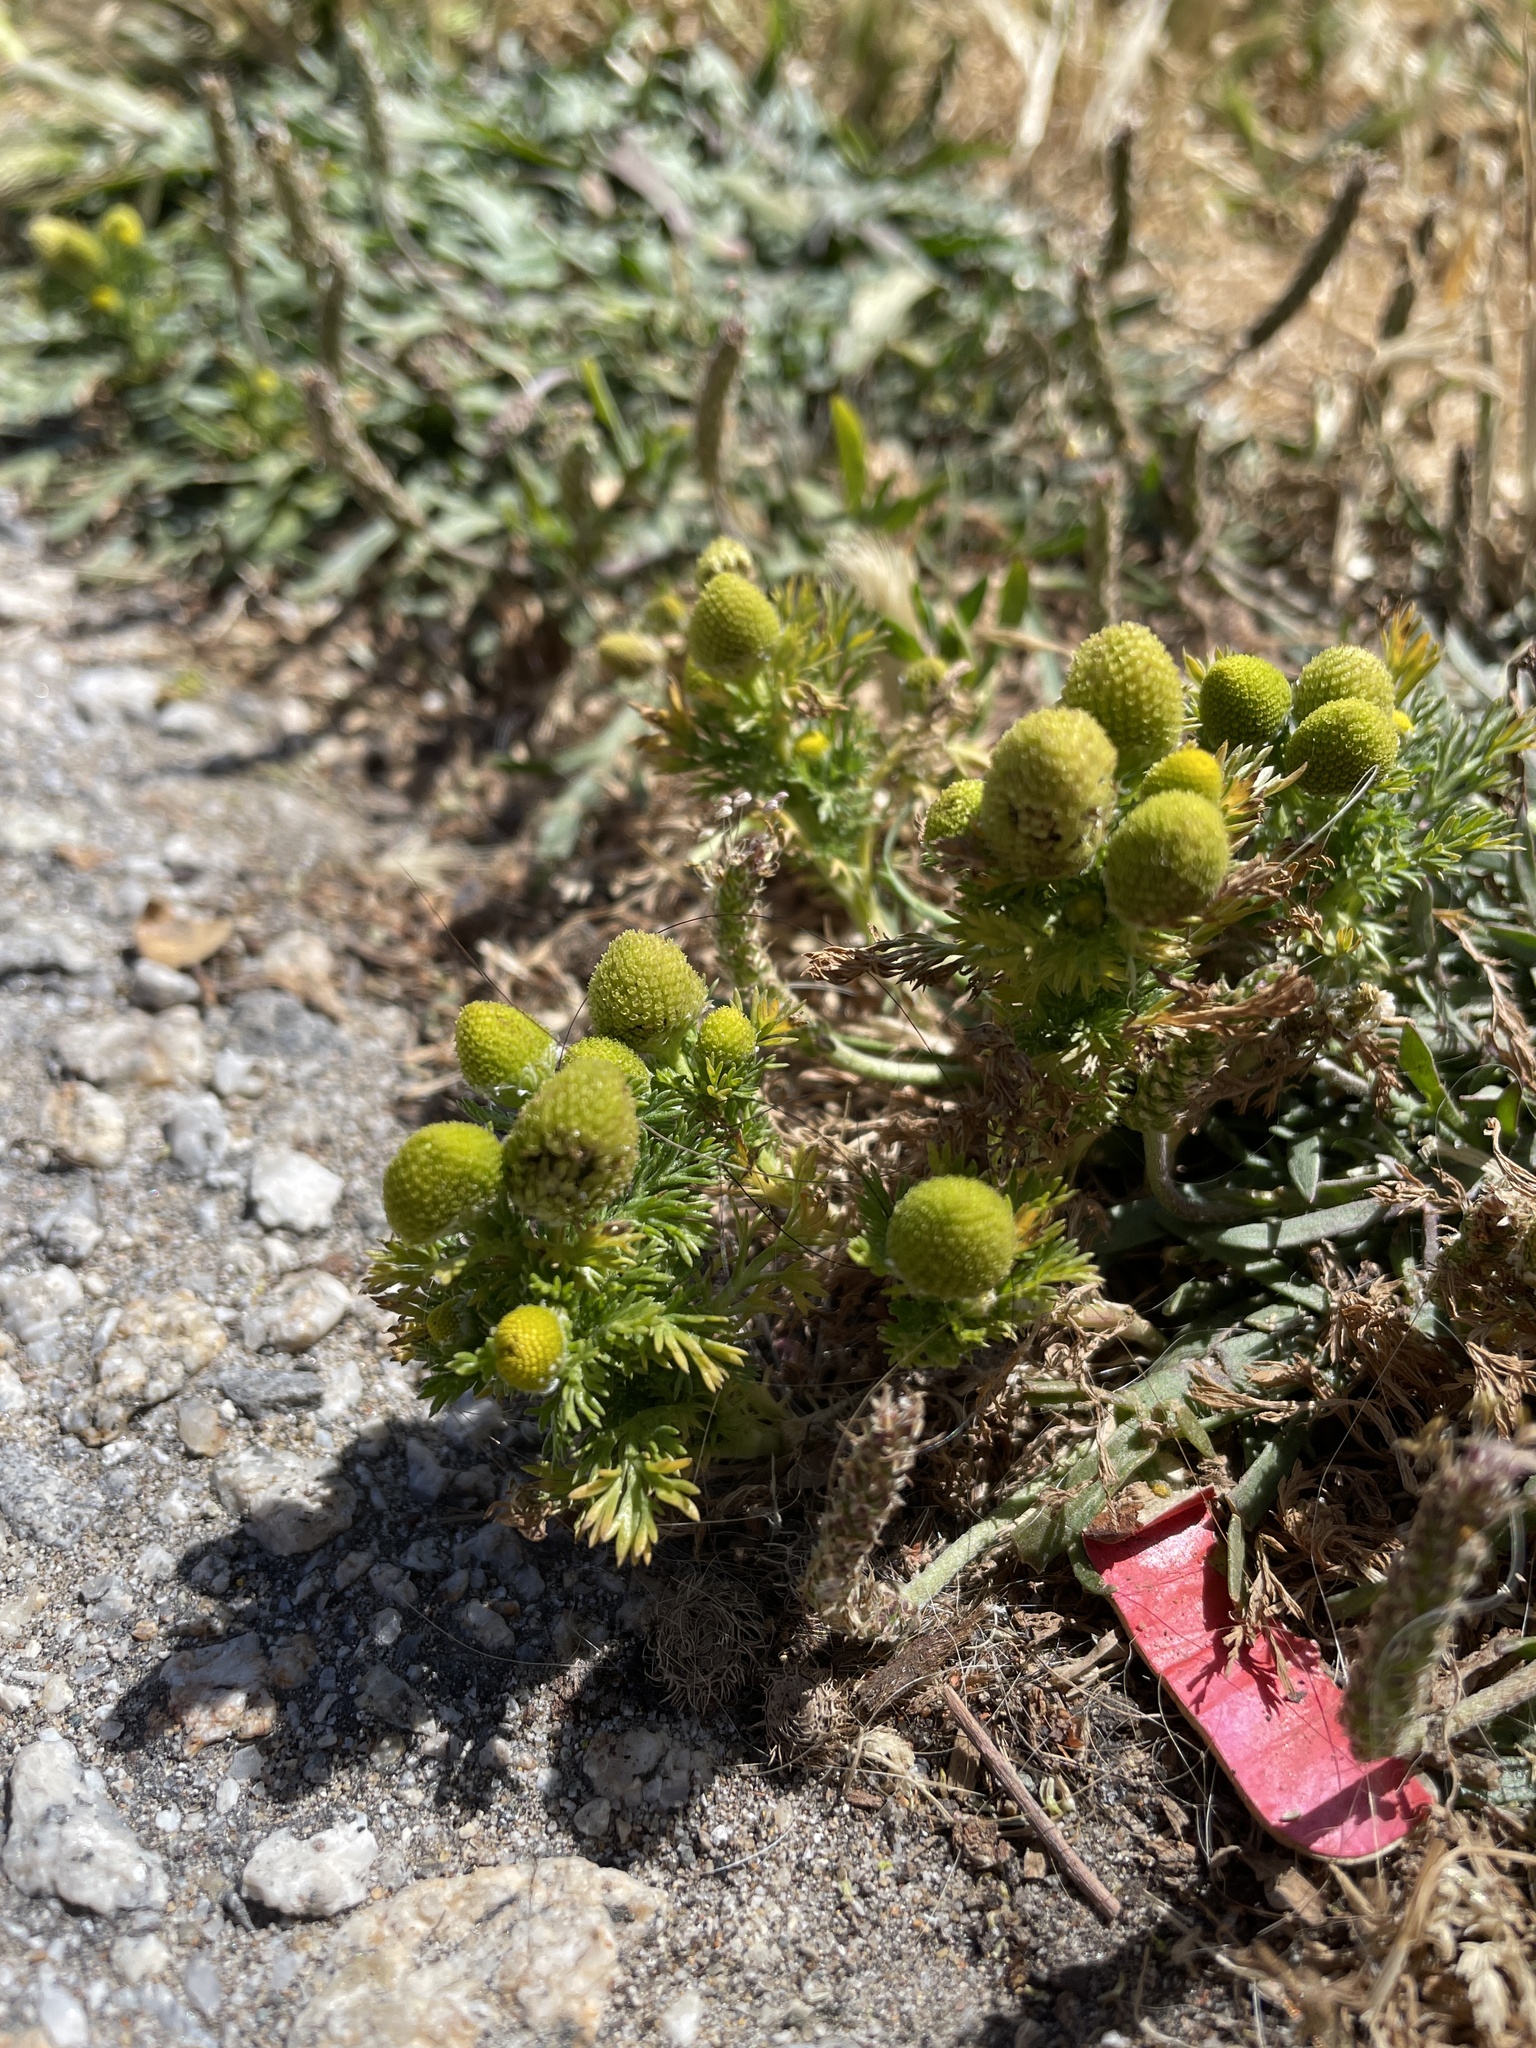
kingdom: Plantae
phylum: Tracheophyta
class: Magnoliopsida
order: Asterales
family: Asteraceae
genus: Matricaria
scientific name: Matricaria discoidea
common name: Disc mayweed
